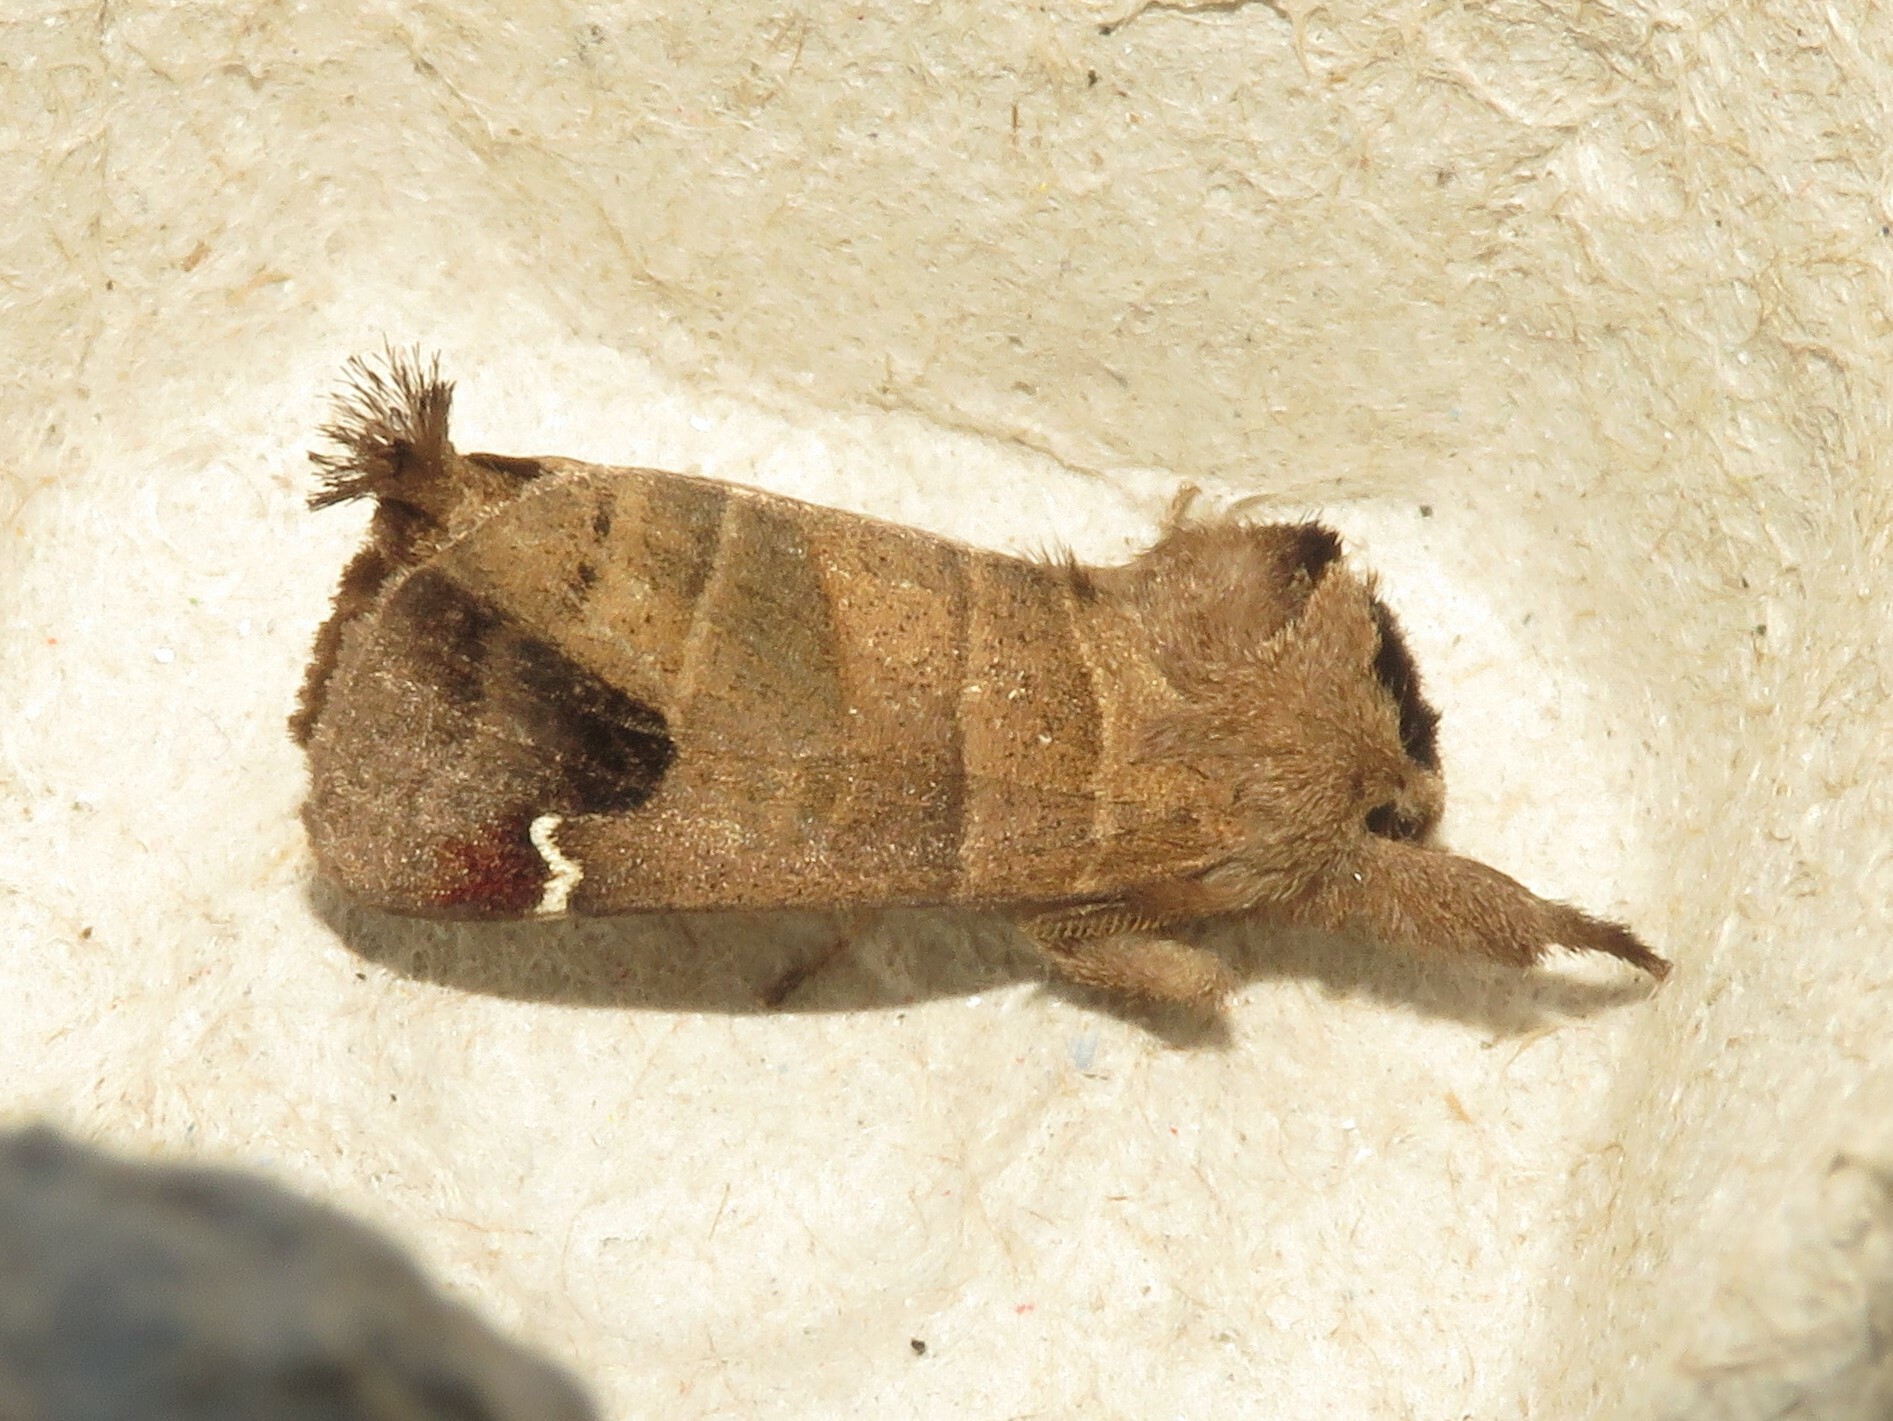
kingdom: Animalia
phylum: Arthropoda
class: Insecta
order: Lepidoptera
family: Notodontidae
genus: Clostera
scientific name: Clostera albosigma
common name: Sigmoid prominent
